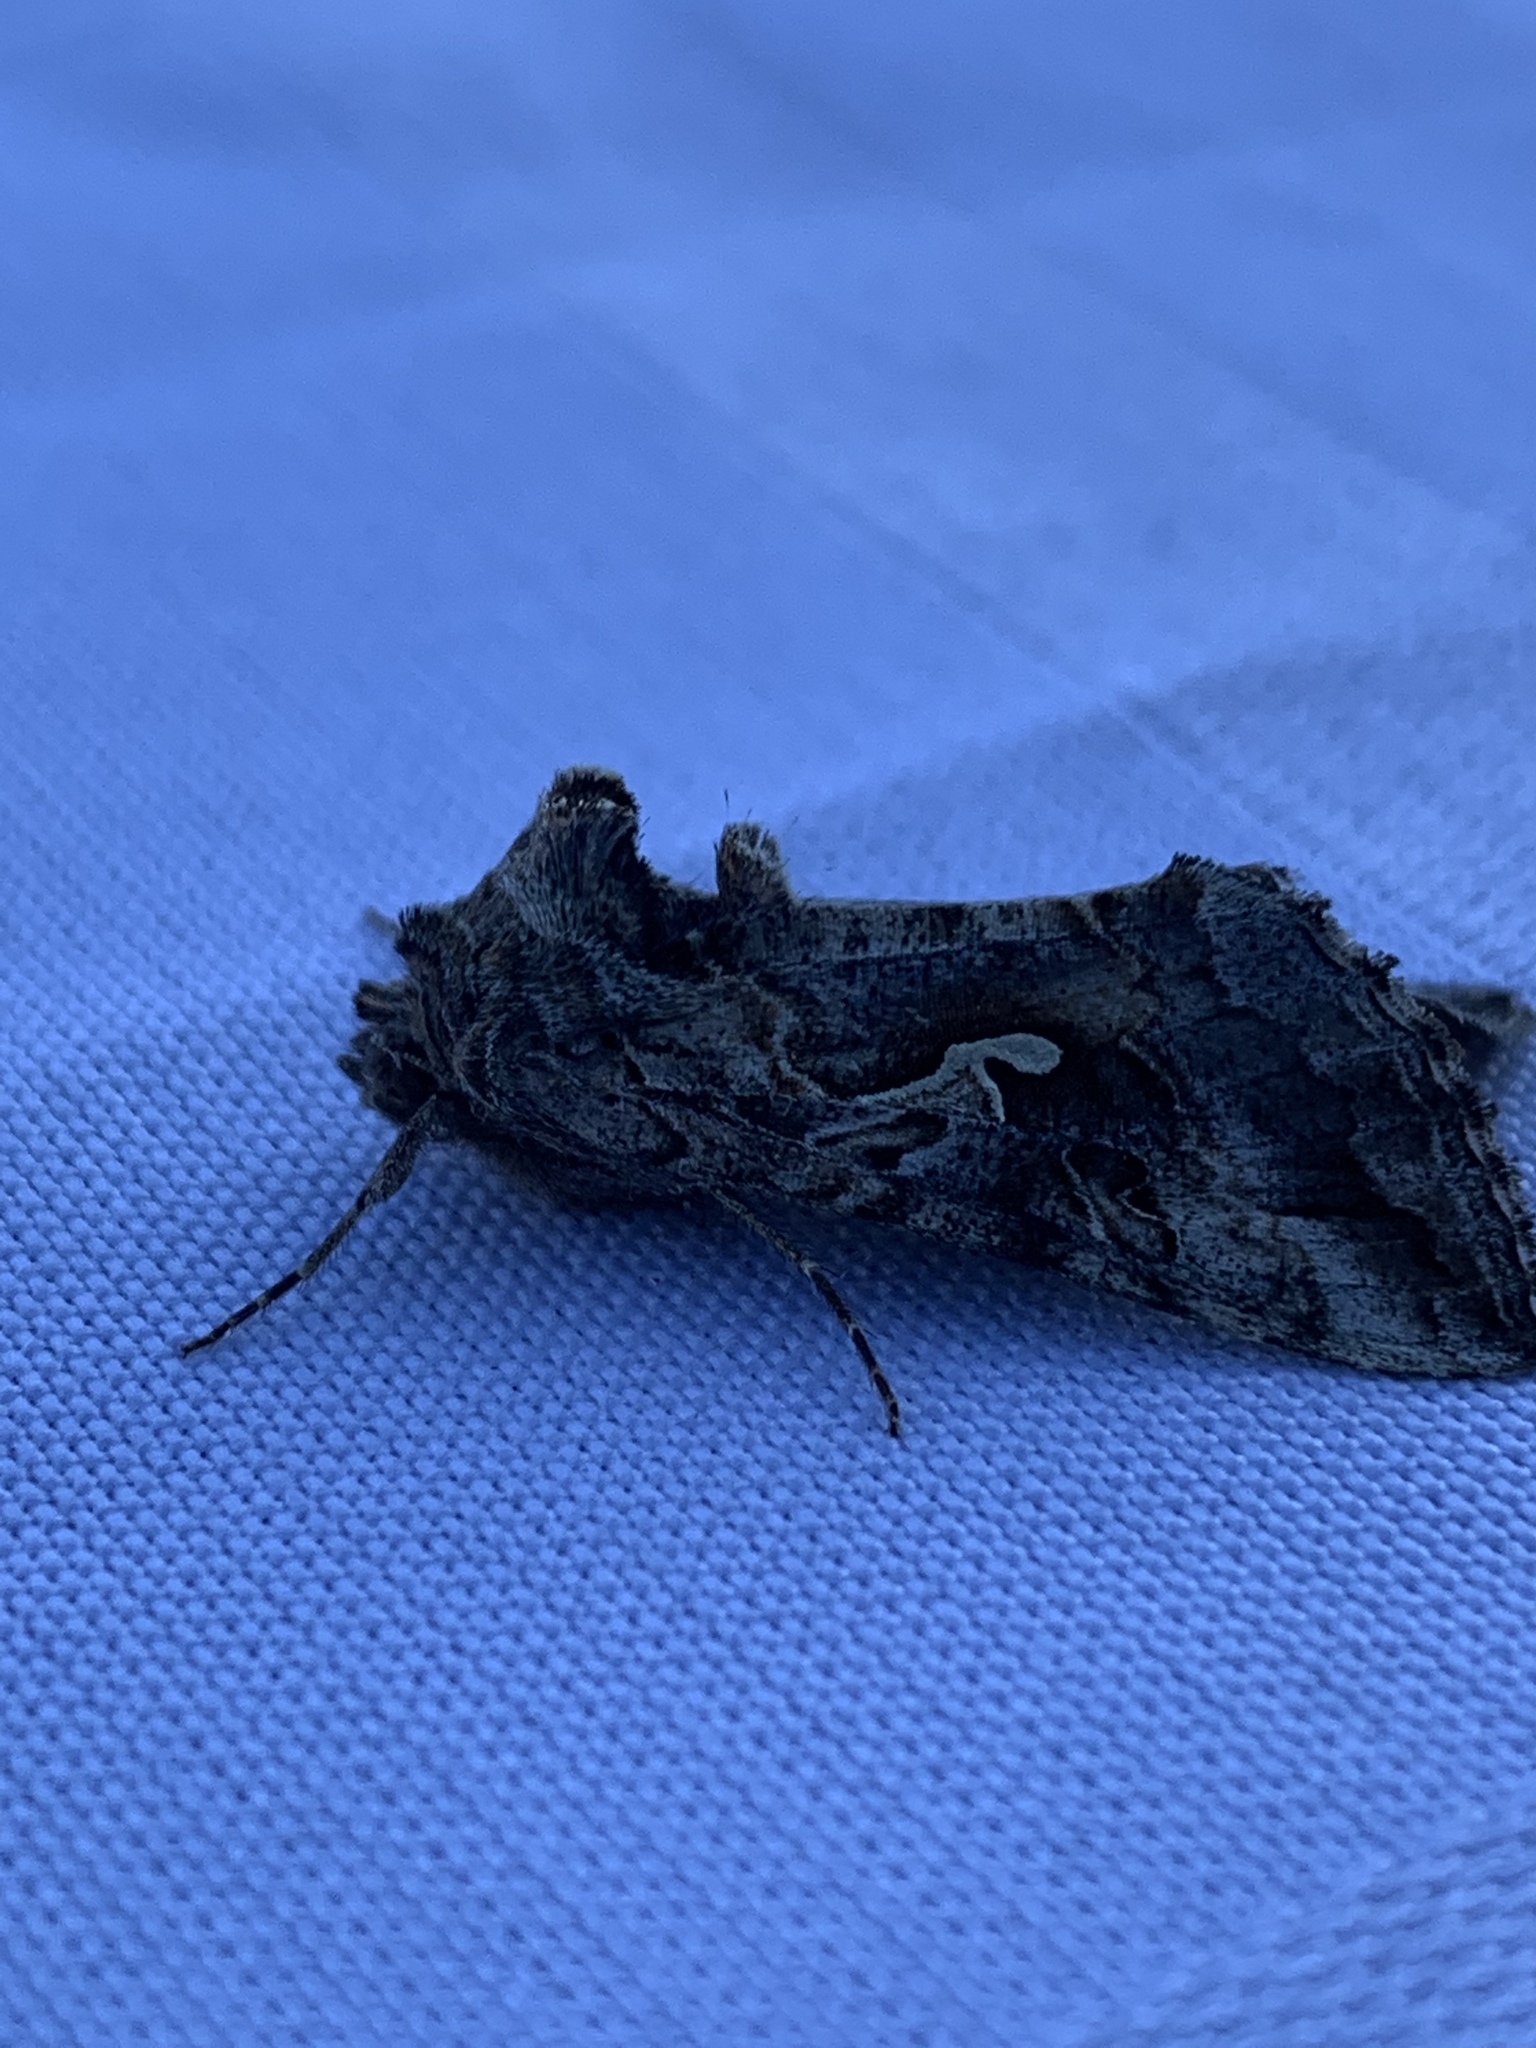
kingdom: Animalia
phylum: Arthropoda
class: Insecta
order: Lepidoptera
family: Noctuidae
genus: Autographa
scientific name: Autographa californica
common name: Alfalfa looper
